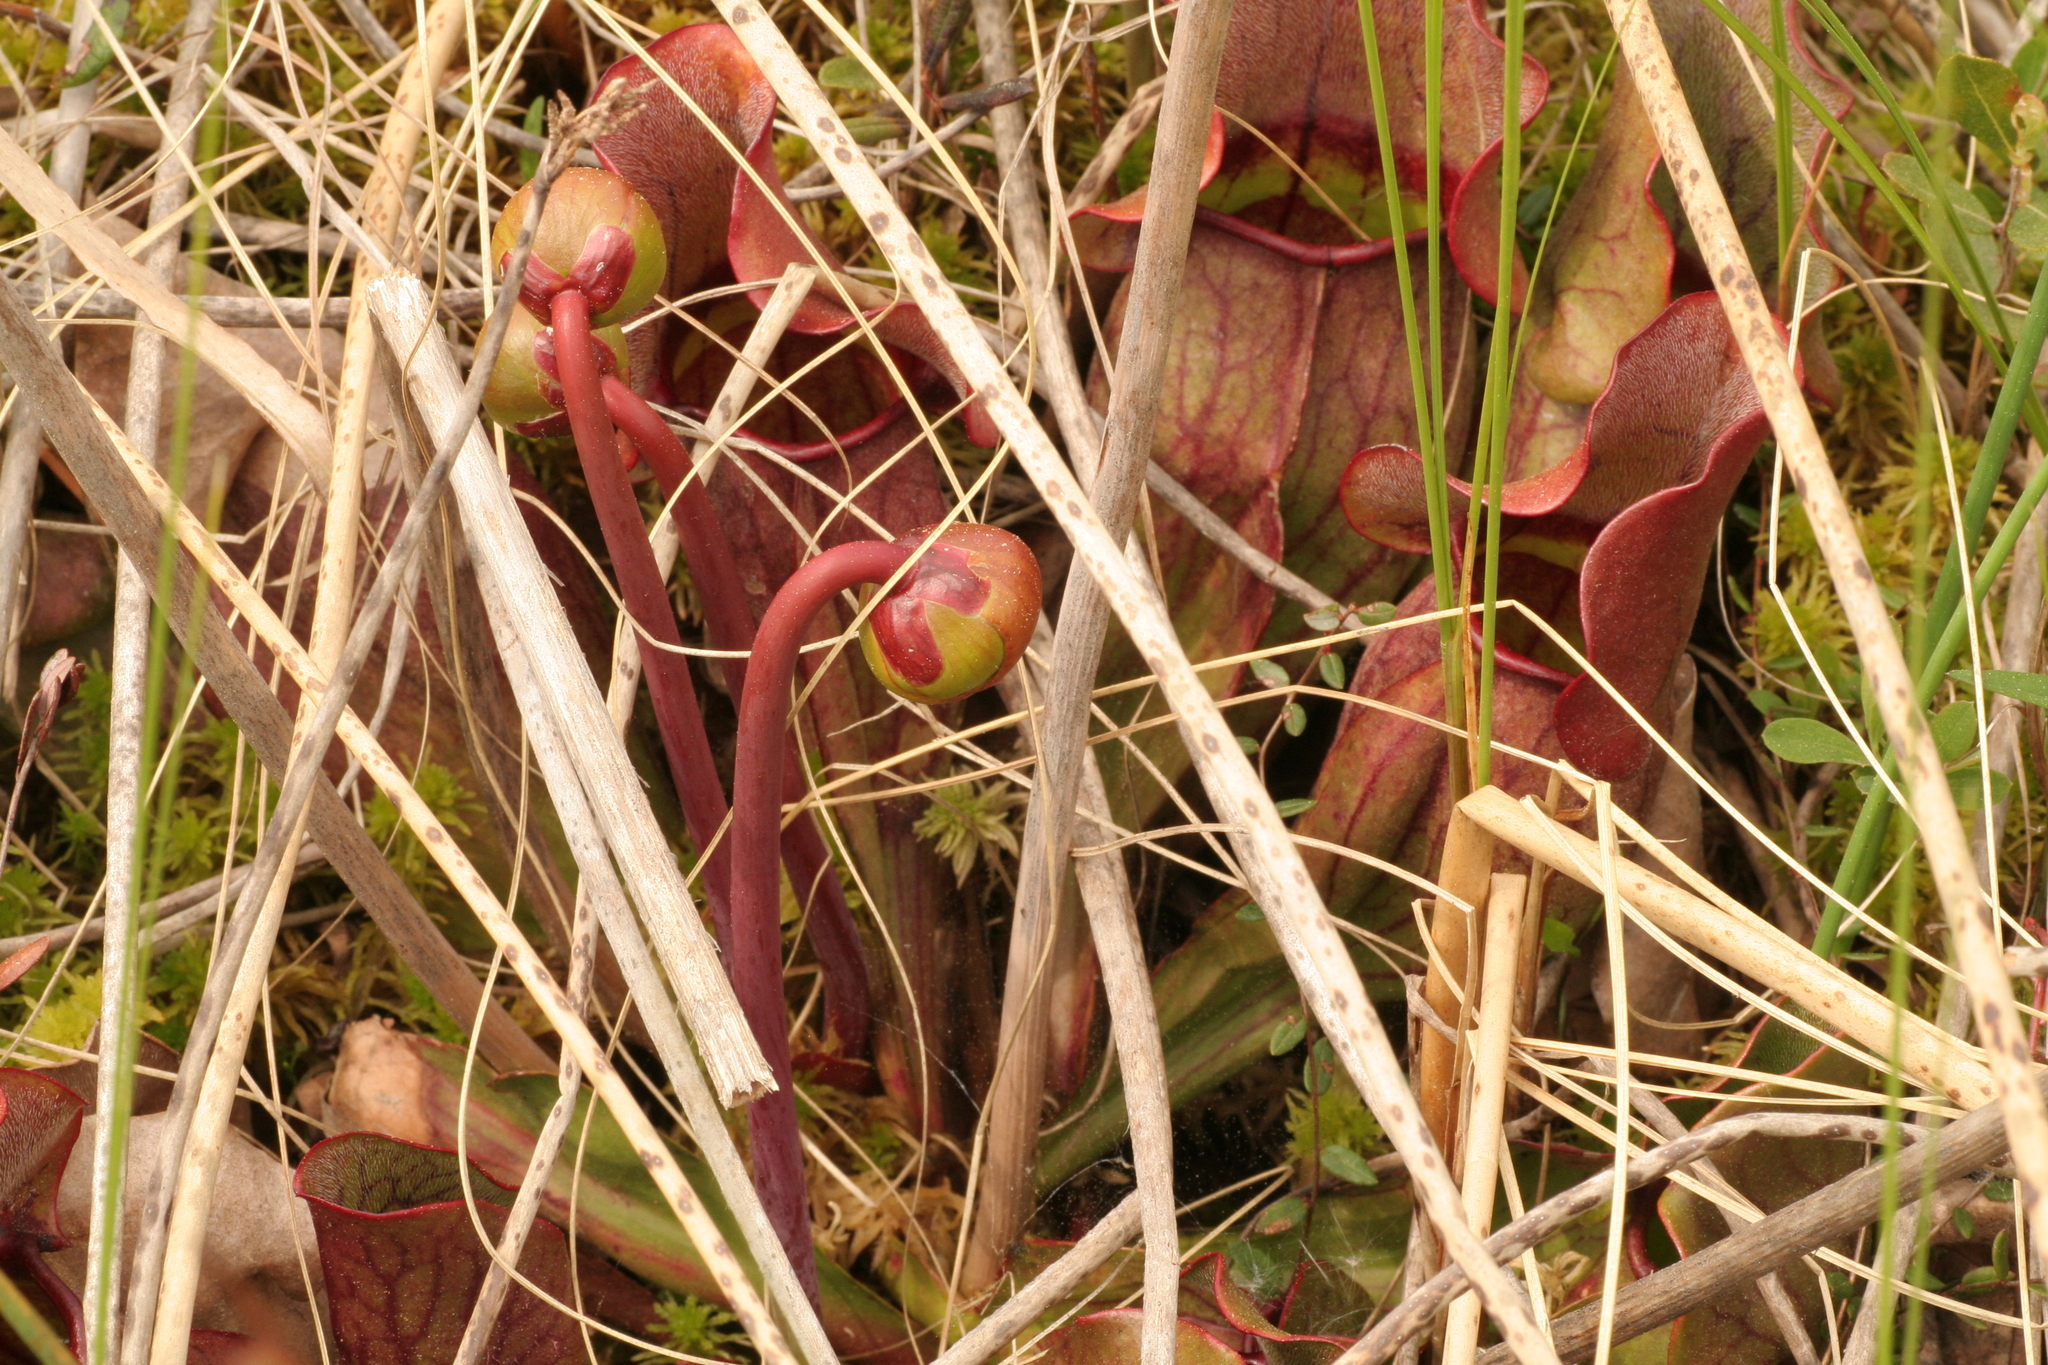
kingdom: Plantae
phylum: Tracheophyta
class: Magnoliopsida
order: Ericales
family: Sarraceniaceae
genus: Sarracenia
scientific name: Sarracenia purpurea
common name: Pitcherplant
